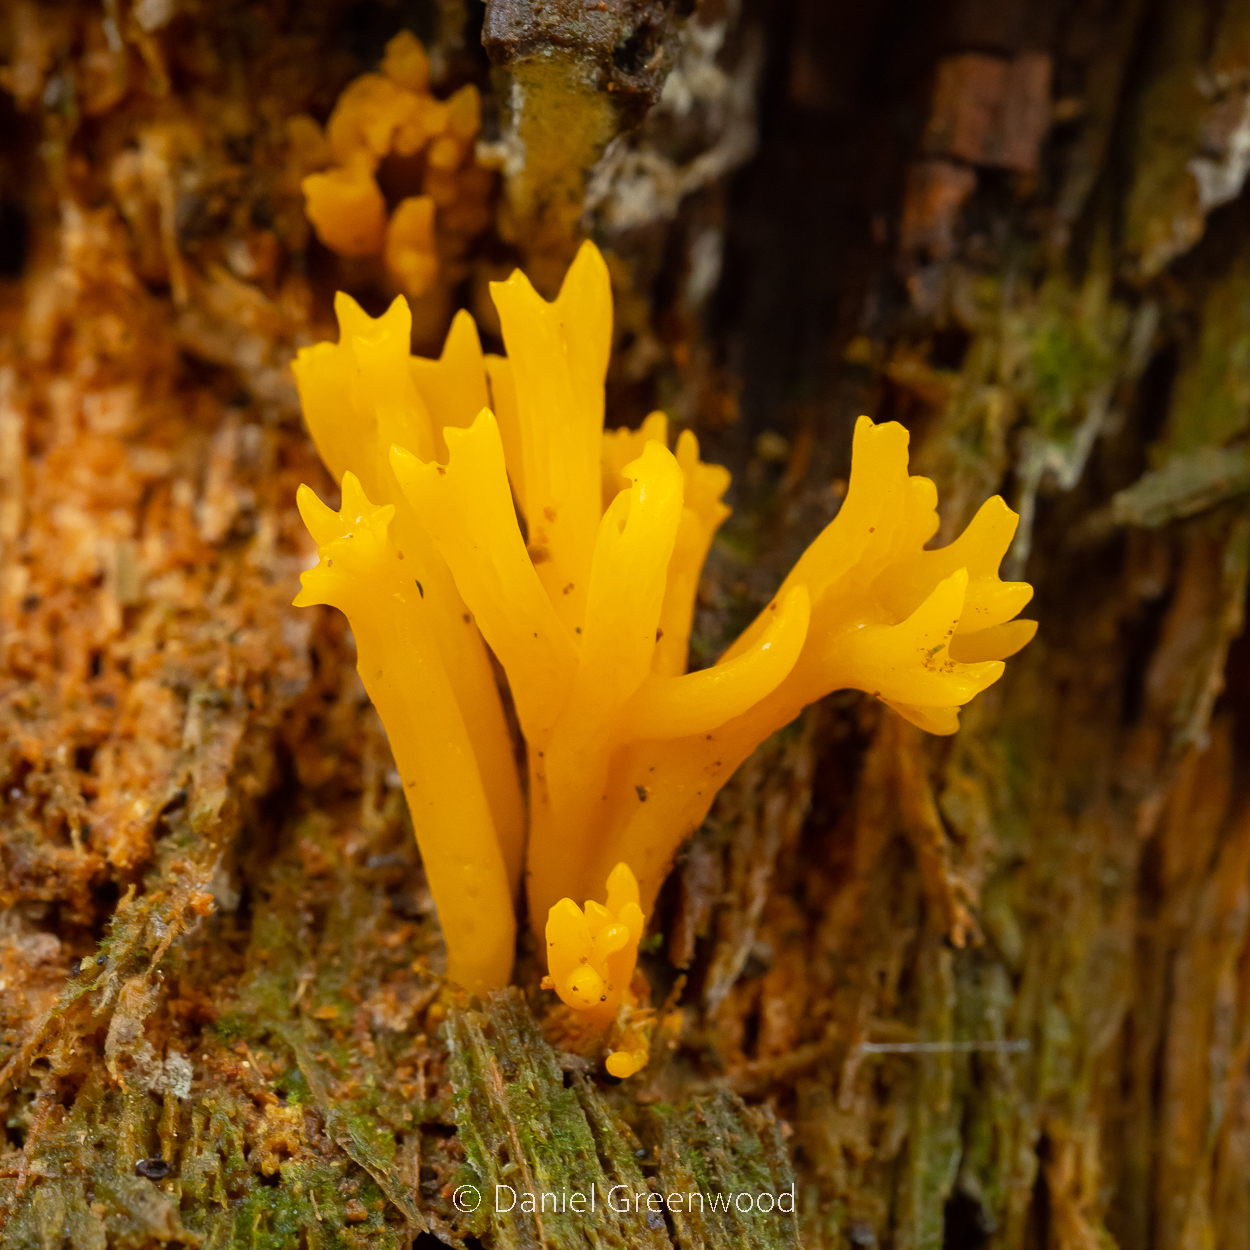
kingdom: Fungi
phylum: Basidiomycota
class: Dacrymycetes
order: Dacrymycetales
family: Dacrymycetaceae
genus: Calocera
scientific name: Calocera viscosa
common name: Yellow stagshorn
